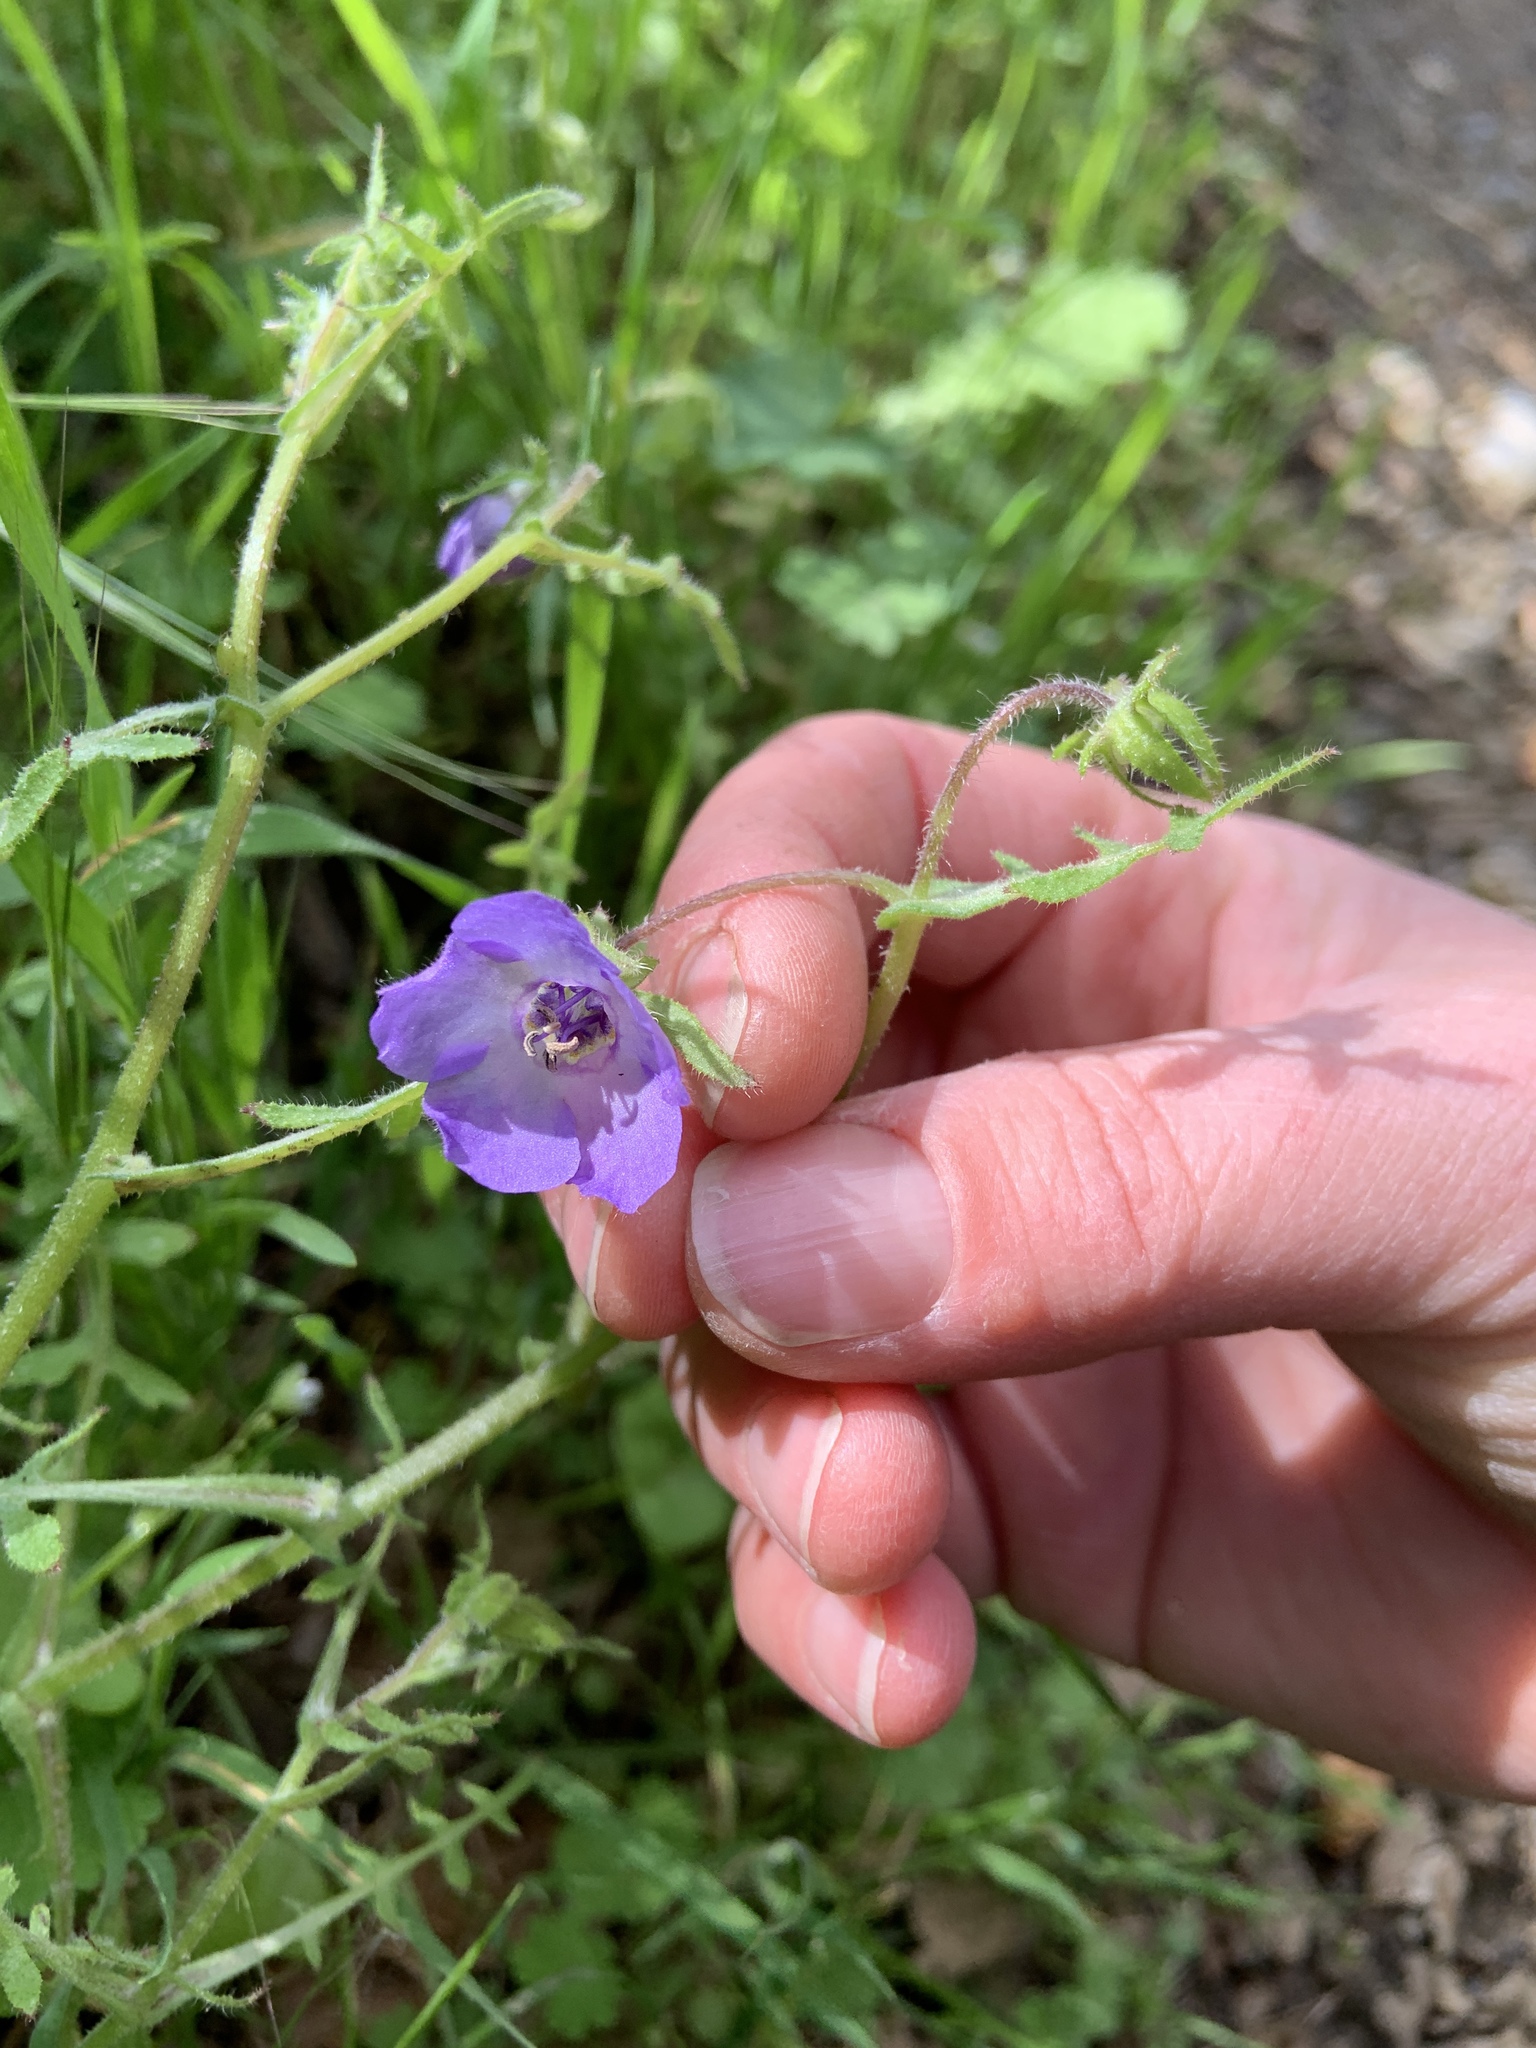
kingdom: Plantae
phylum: Tracheophyta
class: Magnoliopsida
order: Boraginales
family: Hydrophyllaceae
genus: Pholistoma
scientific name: Pholistoma auritum
